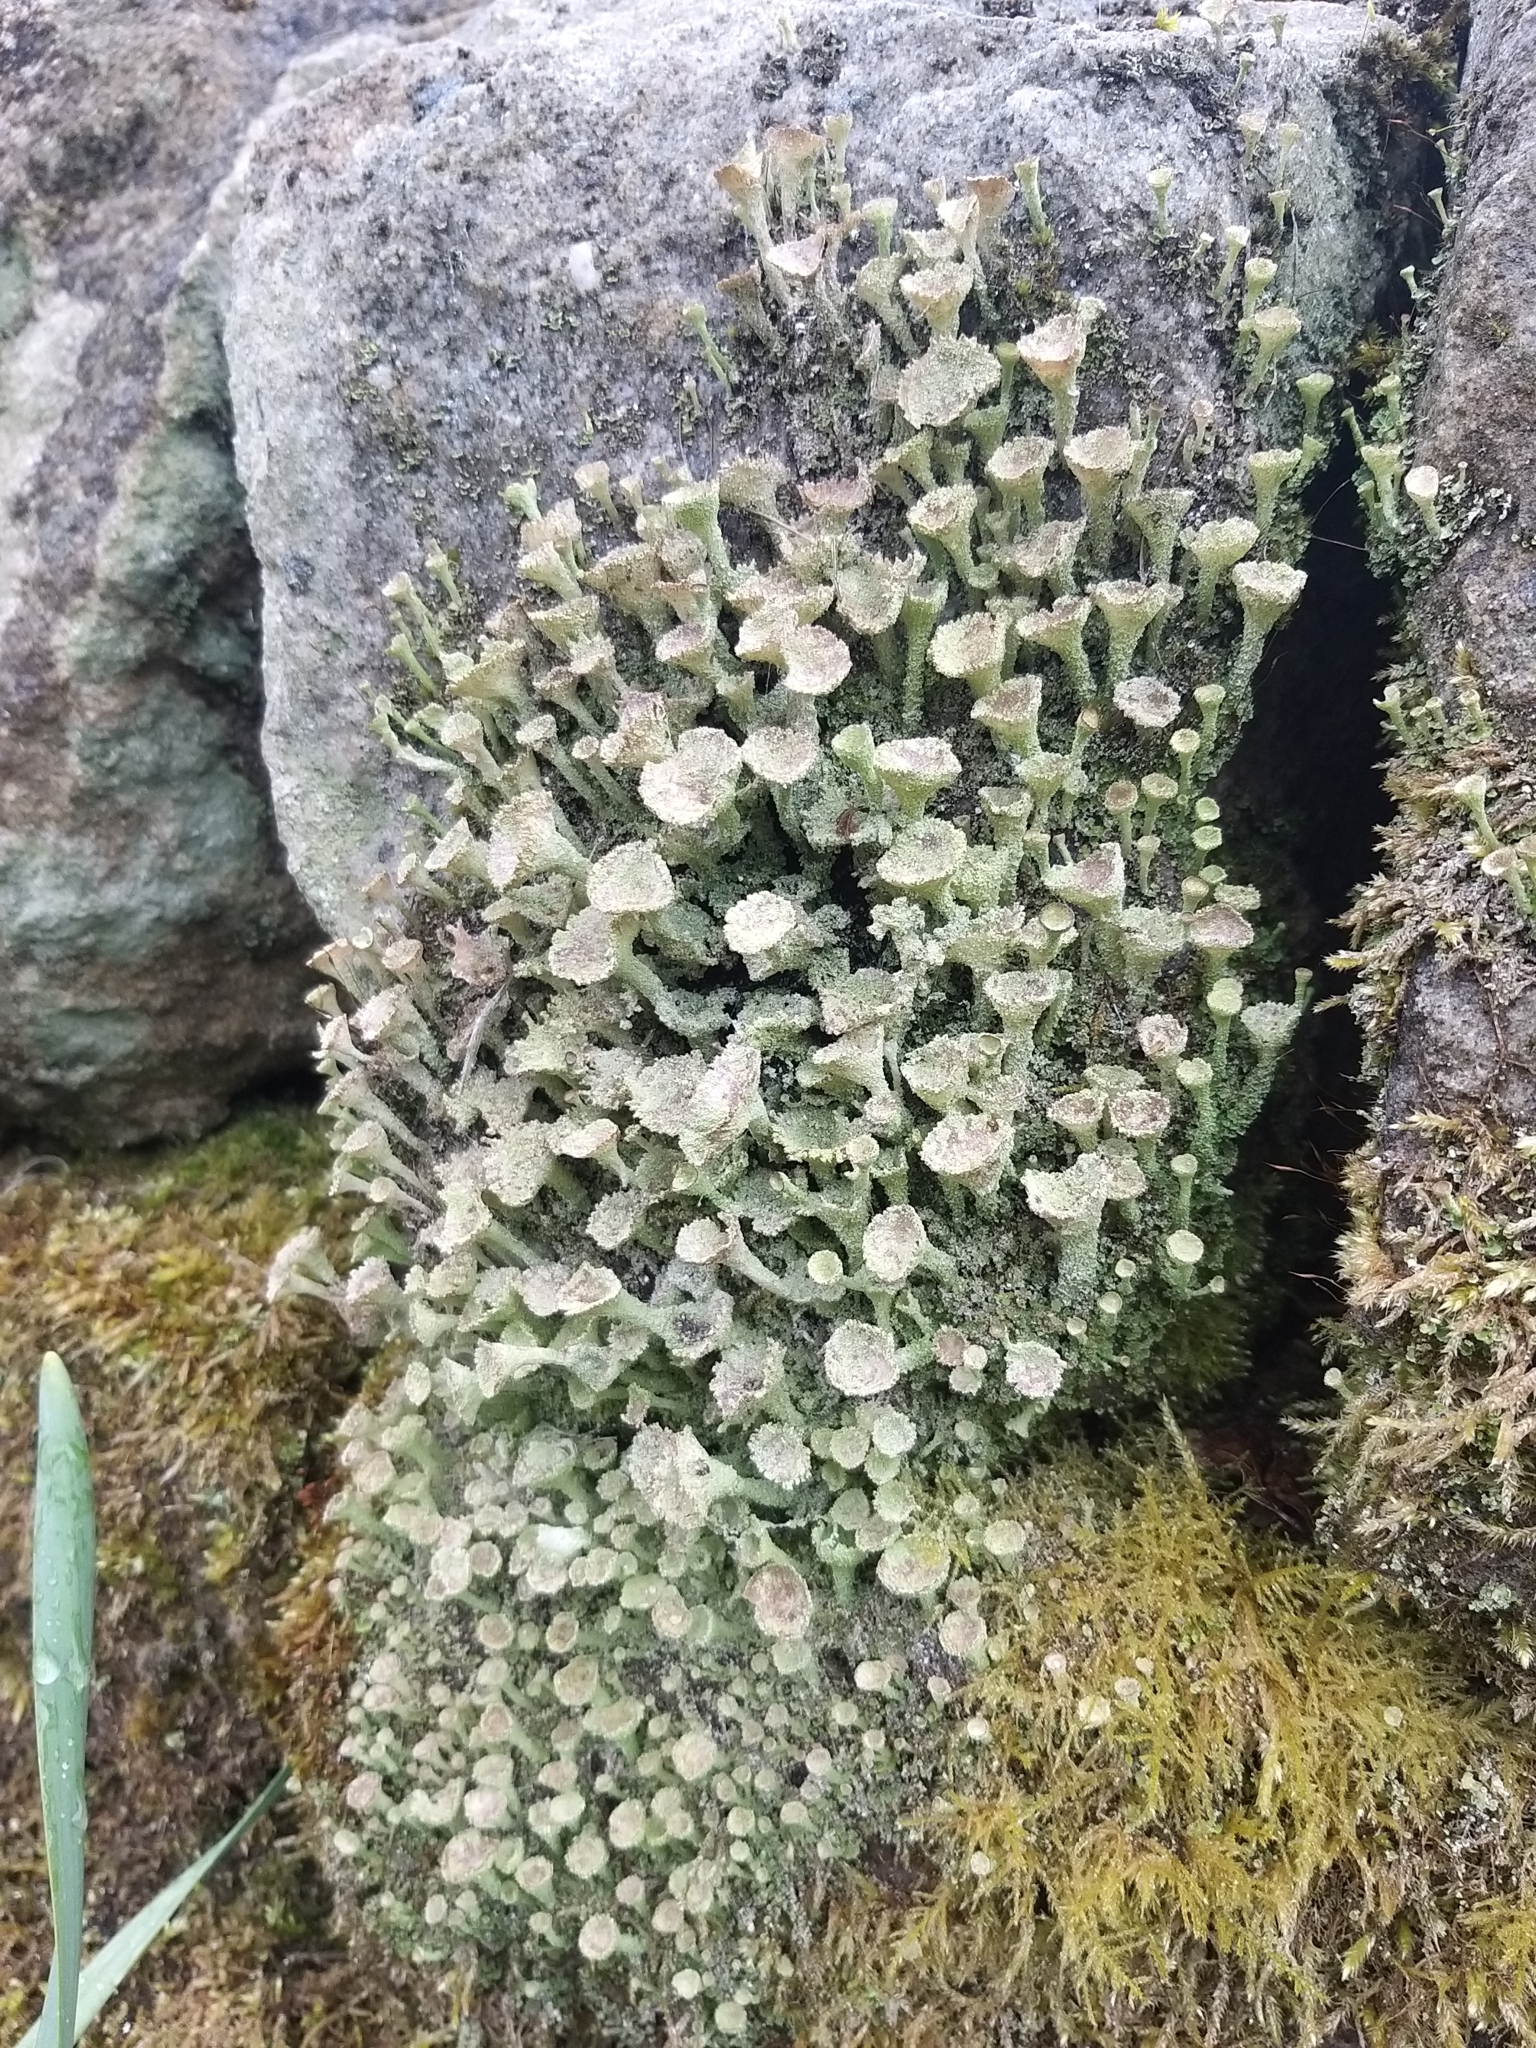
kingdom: Fungi
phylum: Ascomycota
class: Lecanoromycetes
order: Lecanorales
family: Cladoniaceae
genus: Cladonia
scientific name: Cladonia
